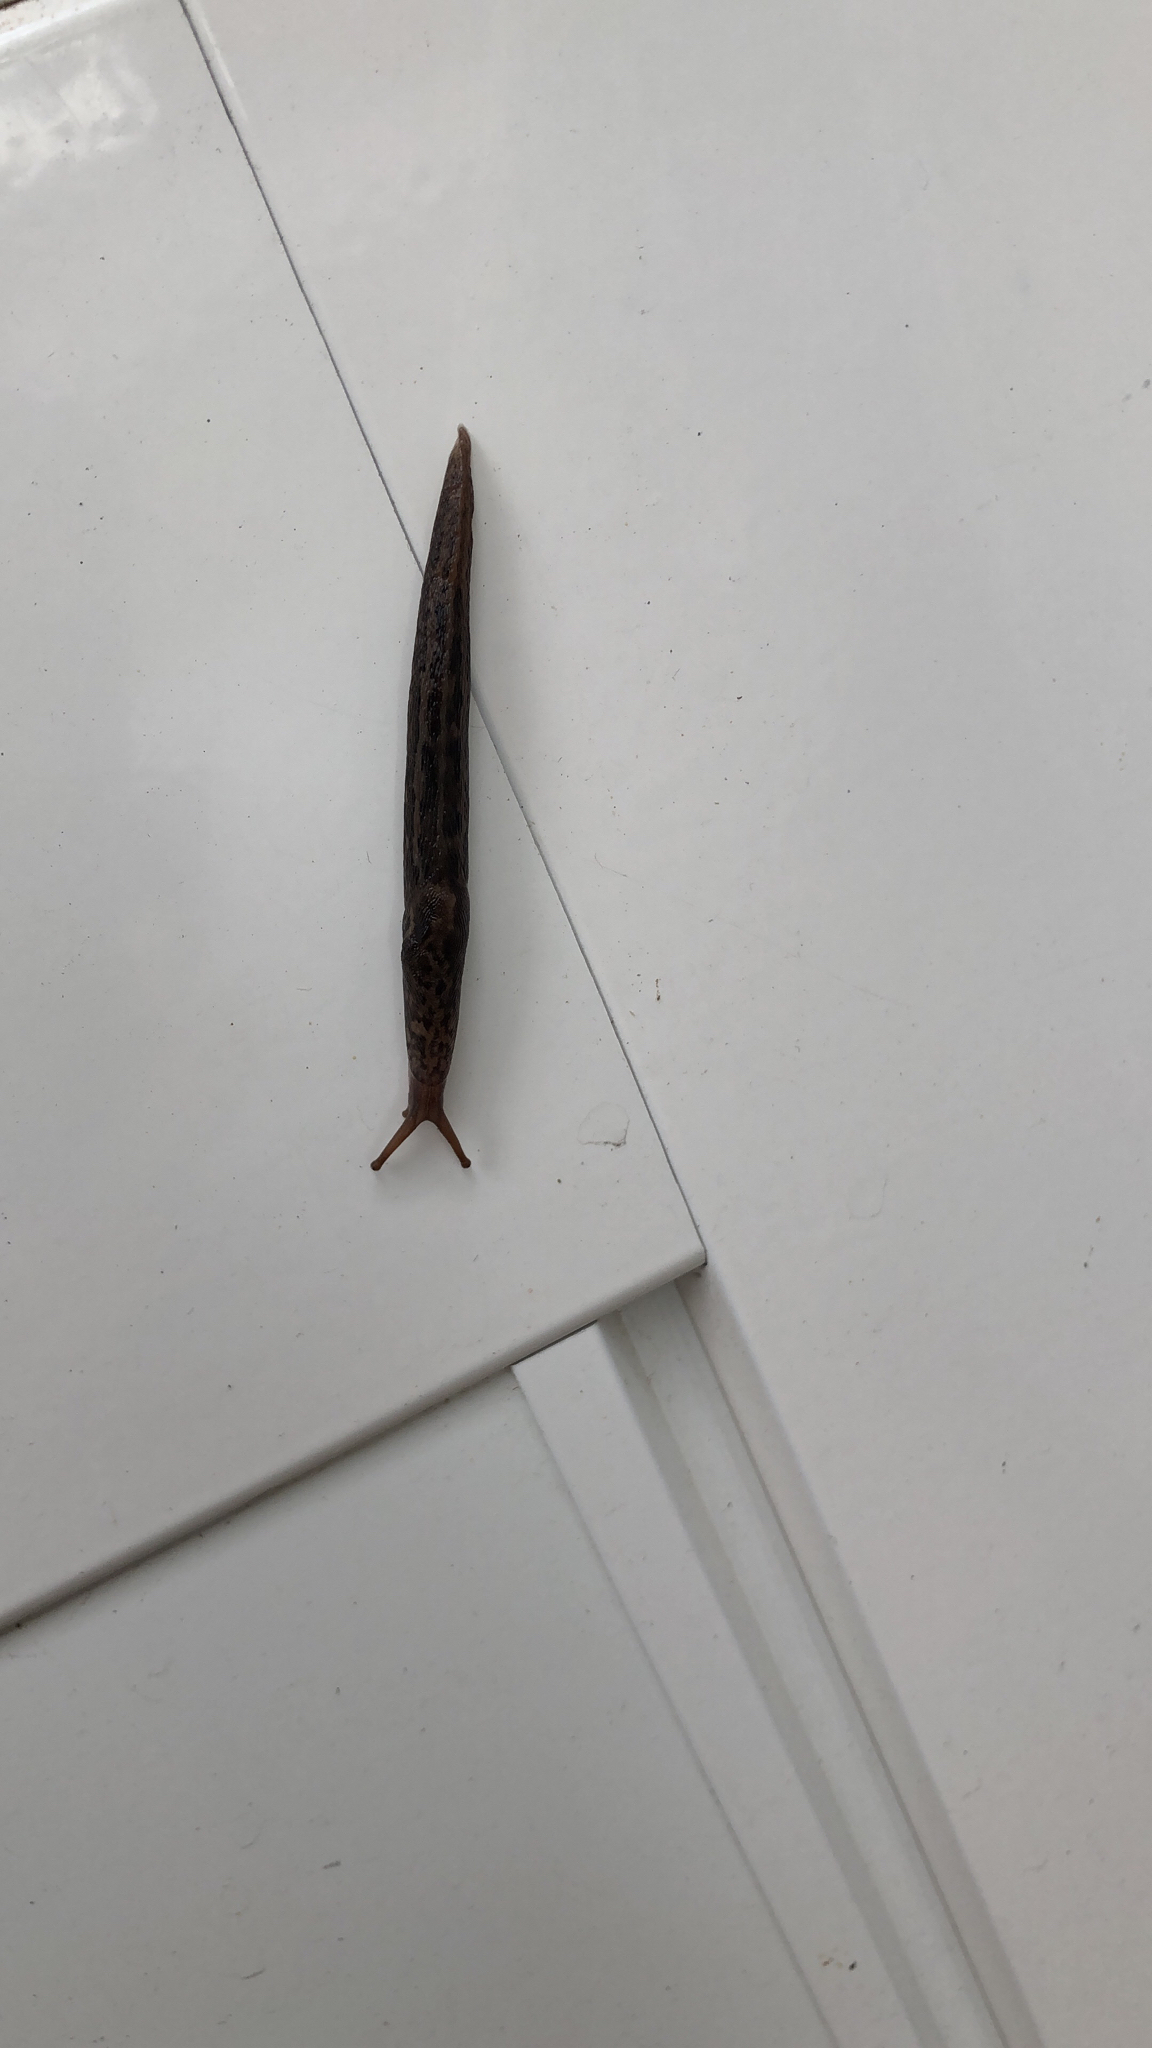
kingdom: Animalia
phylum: Mollusca
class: Gastropoda
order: Stylommatophora
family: Limacidae
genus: Limax
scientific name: Limax maximus
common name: Great grey slug
